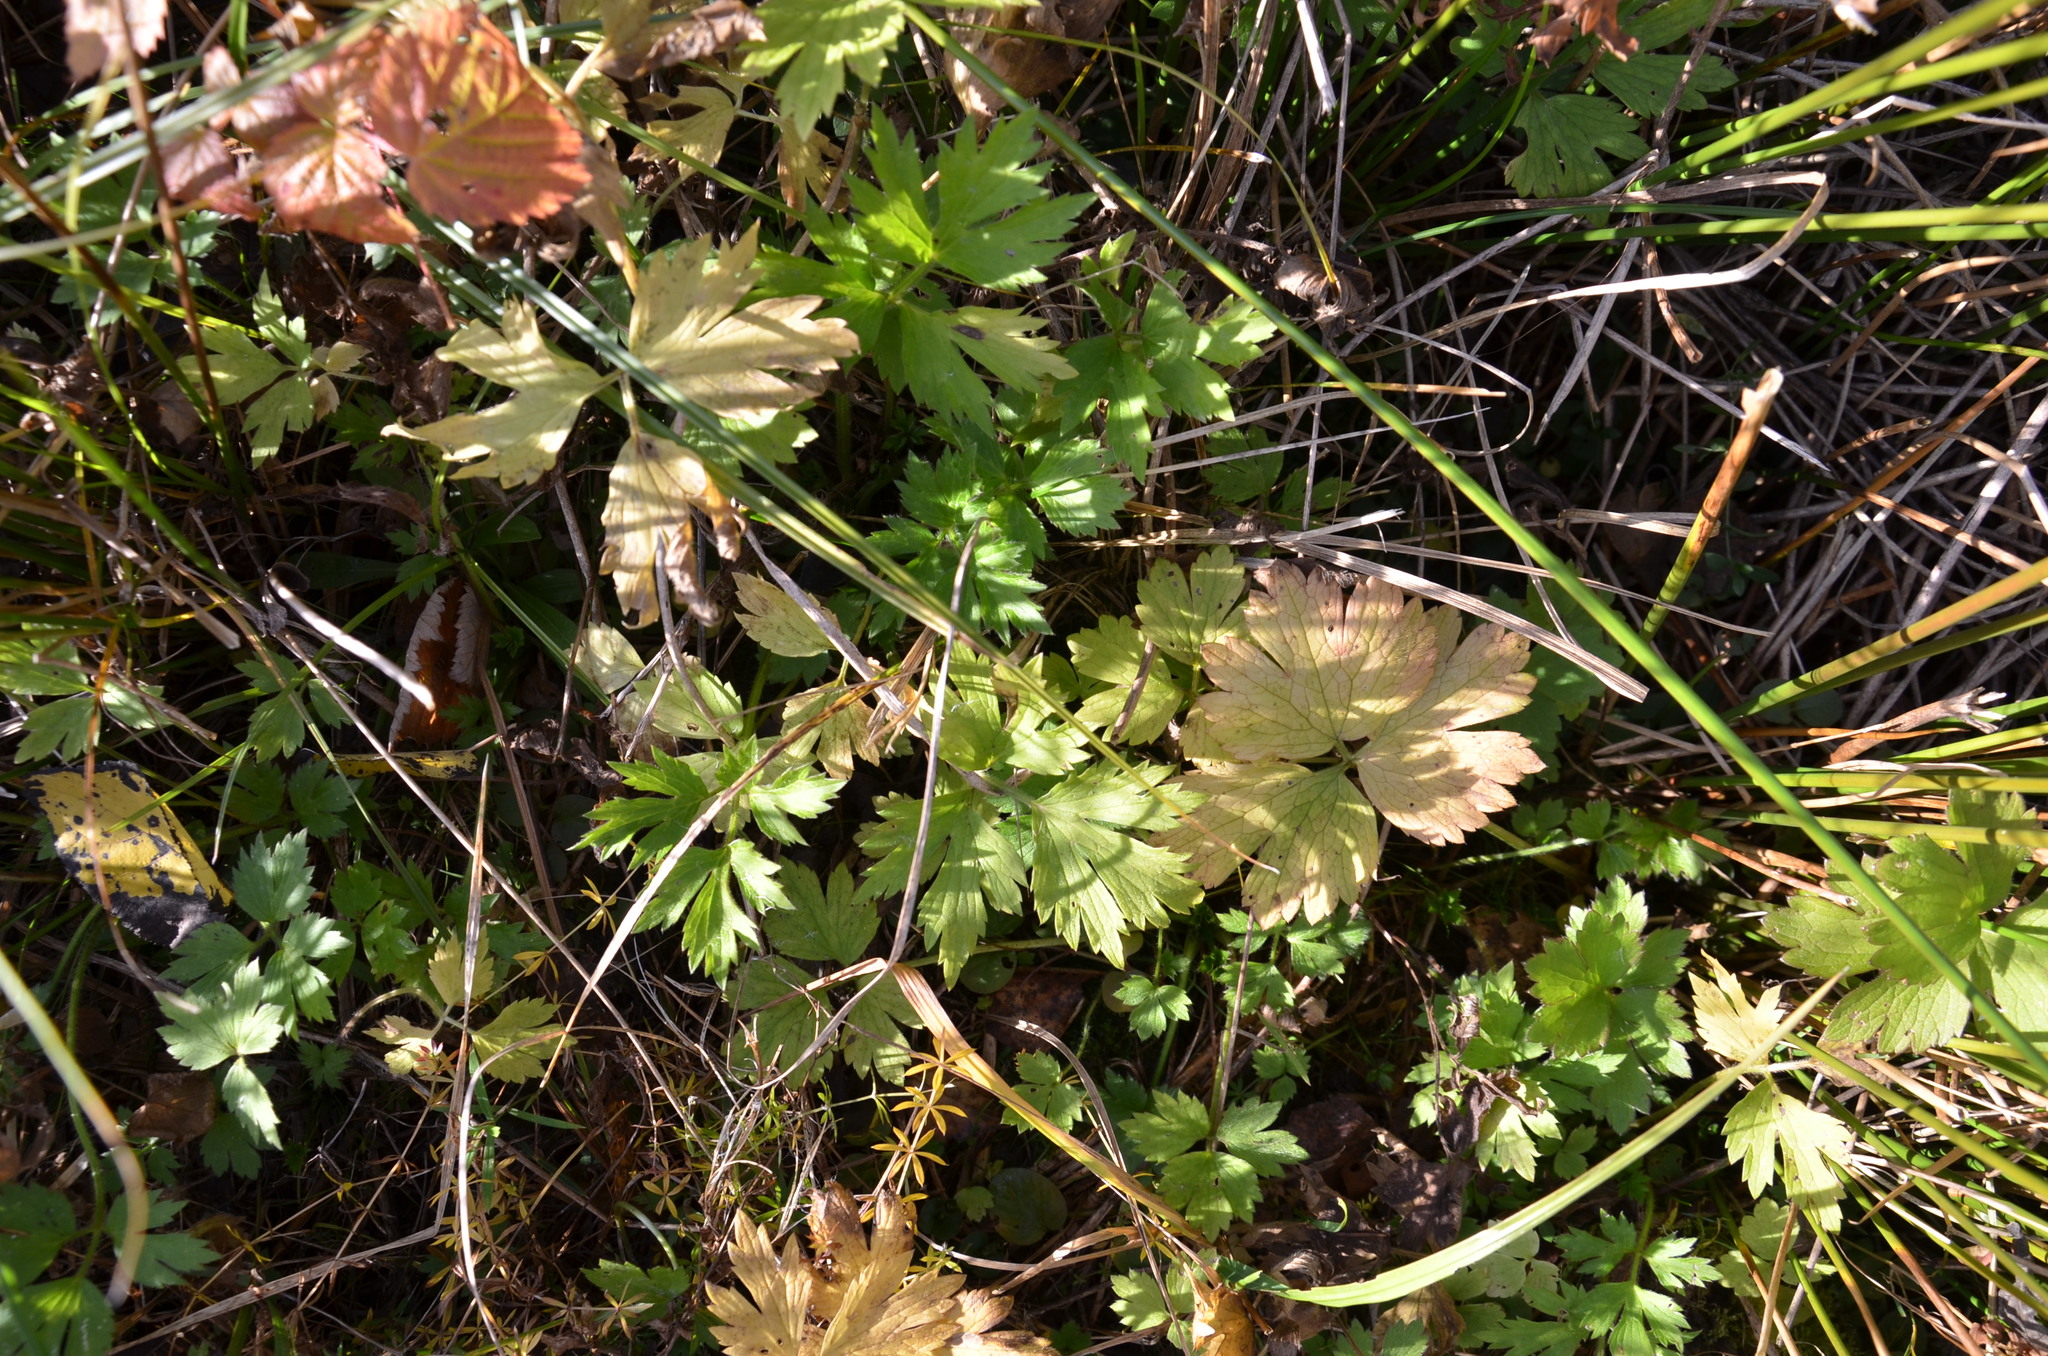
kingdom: Plantae
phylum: Tracheophyta
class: Magnoliopsida
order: Ranunculales
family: Ranunculaceae
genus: Ranunculus
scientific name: Ranunculus repens
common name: Creeping buttercup
